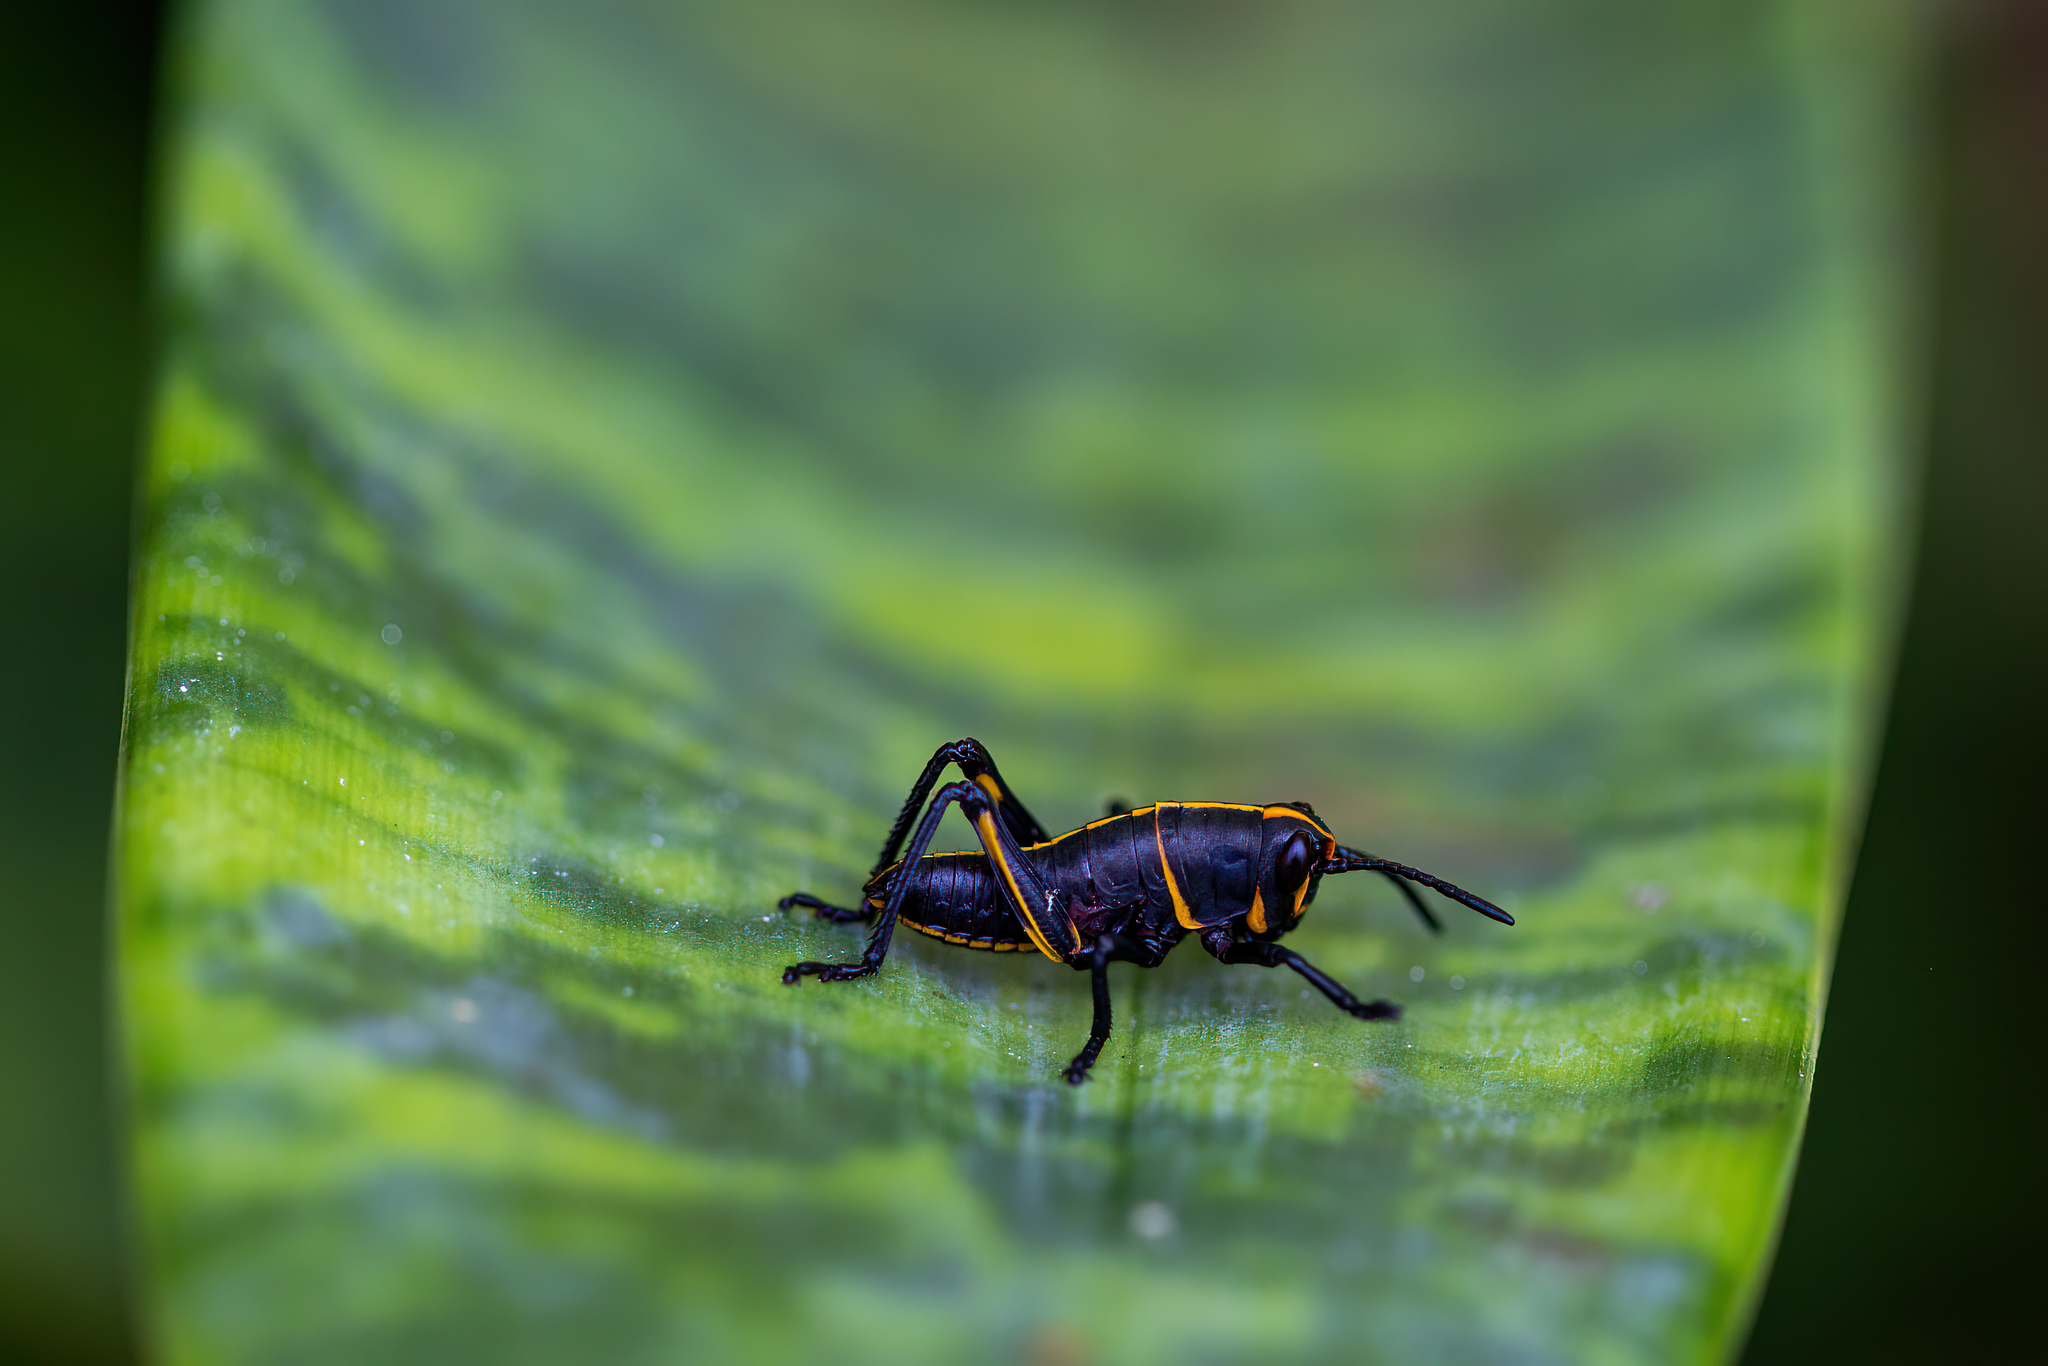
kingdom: Animalia
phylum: Arthropoda
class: Insecta
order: Orthoptera
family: Romaleidae
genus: Romalea
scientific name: Romalea microptera
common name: Eastern lubber grasshopper
